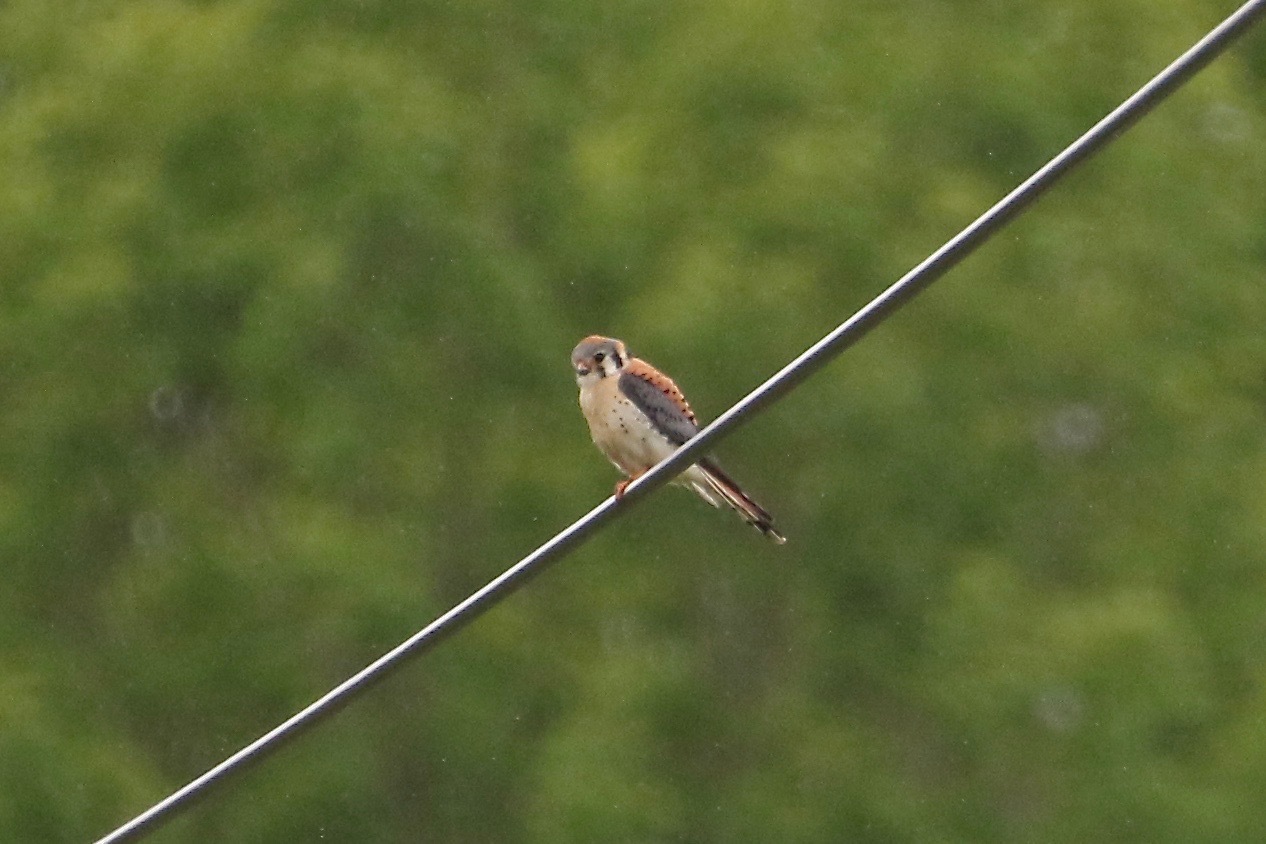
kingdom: Animalia
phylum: Chordata
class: Aves
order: Falconiformes
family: Falconidae
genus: Falco
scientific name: Falco sparverius
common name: American kestrel
